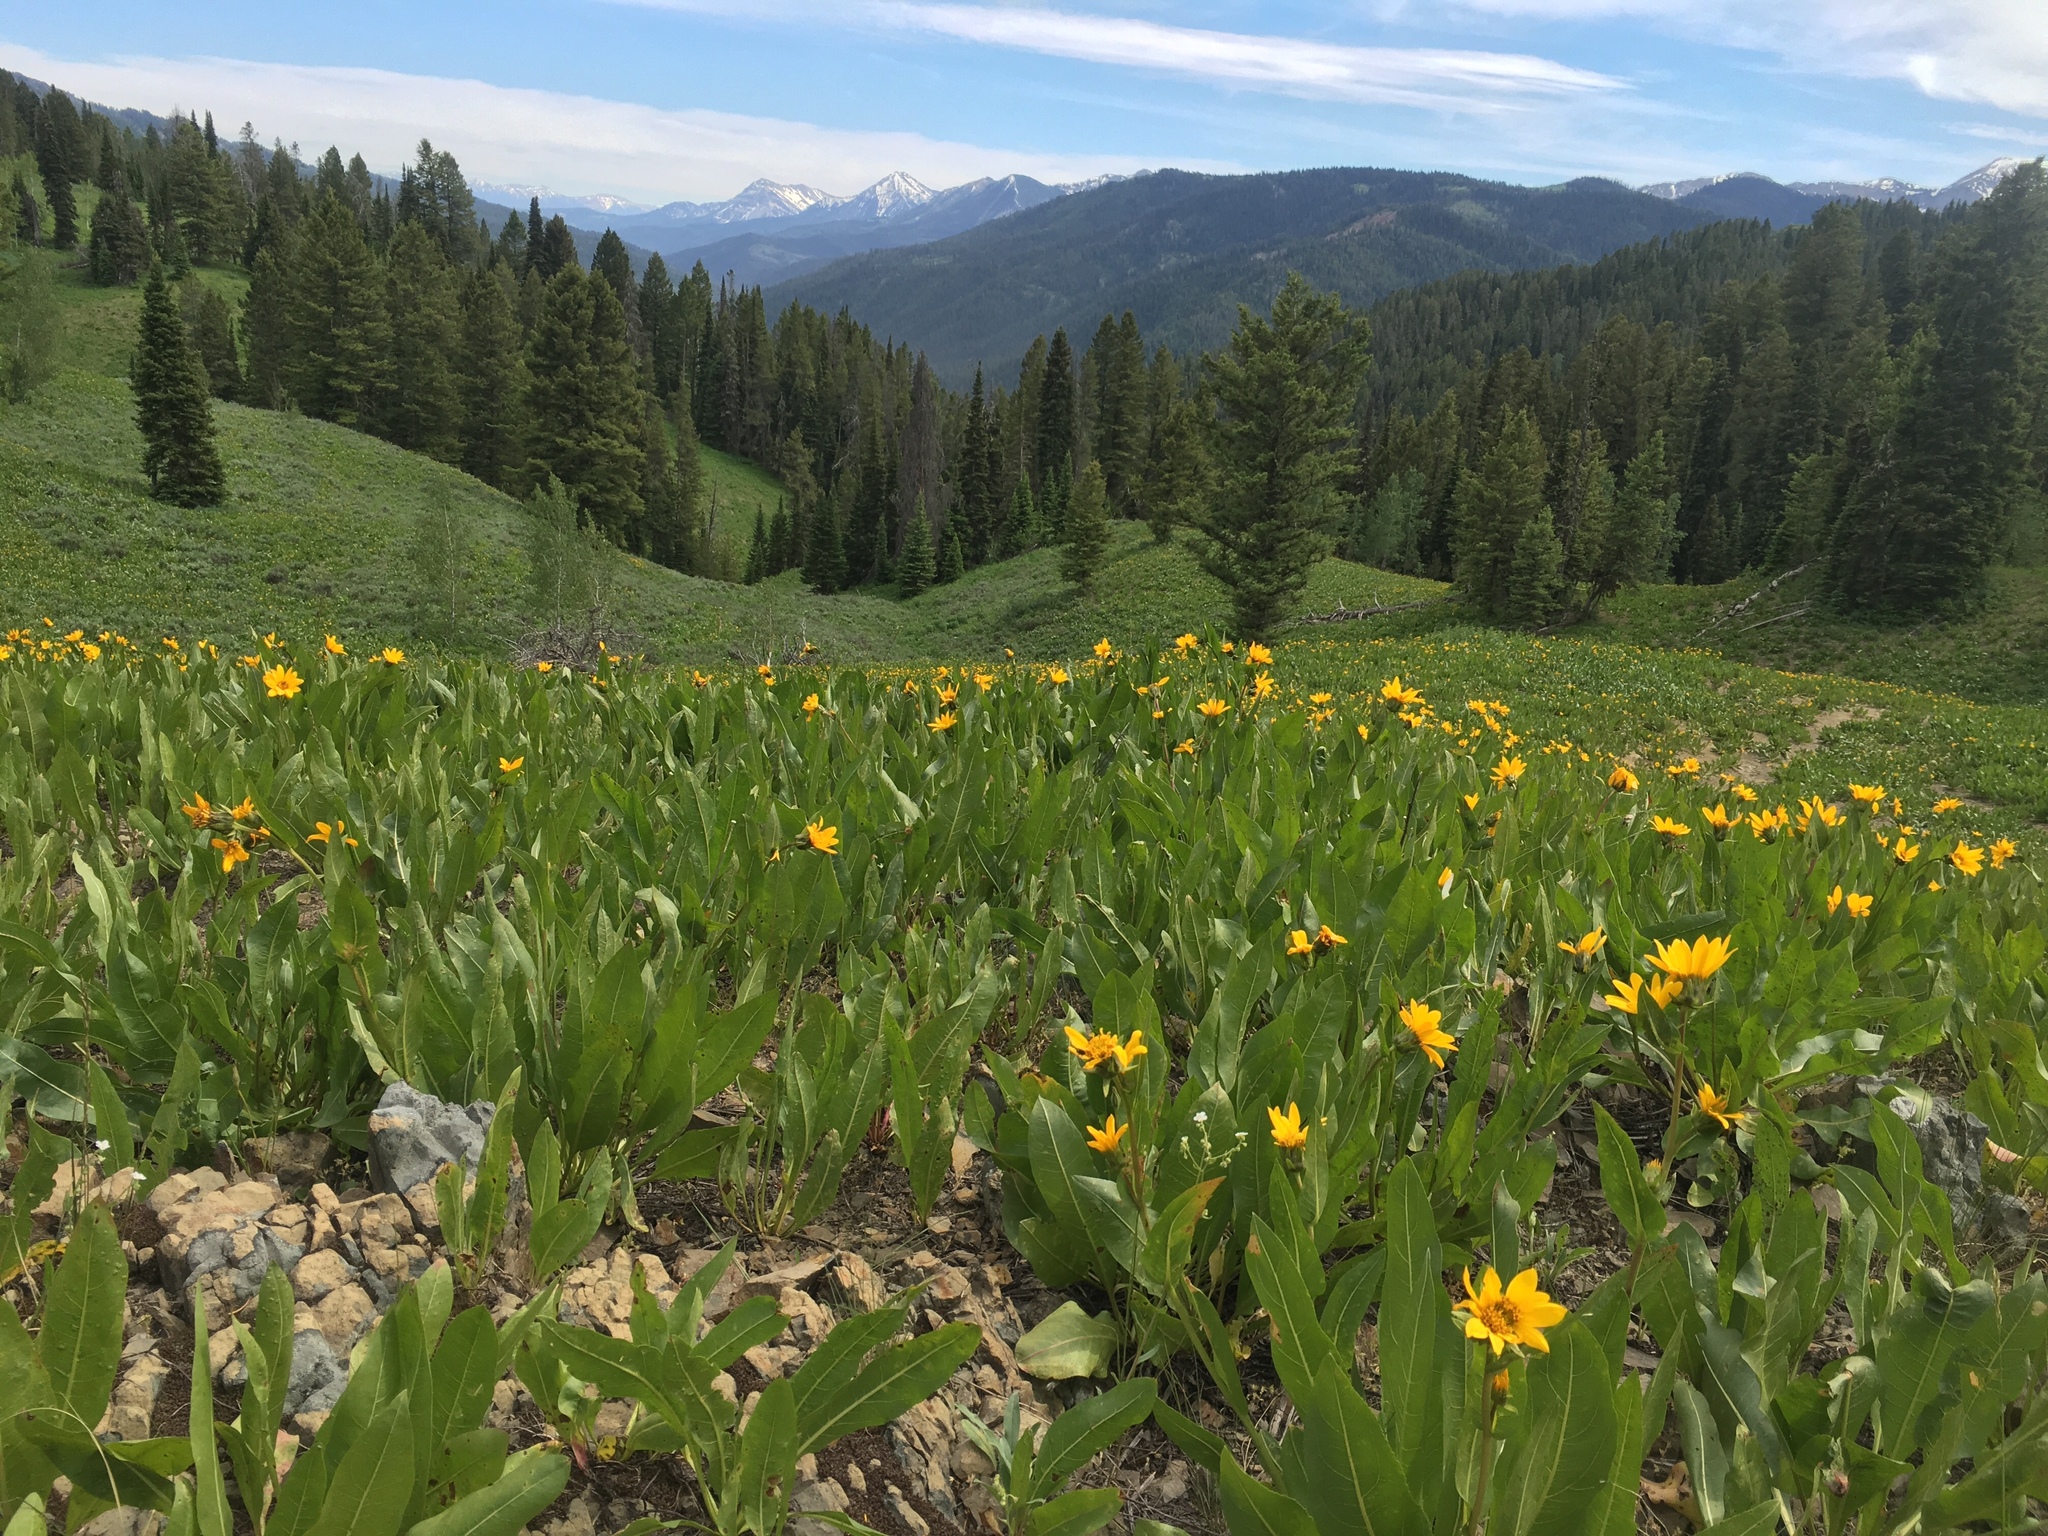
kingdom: Plantae
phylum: Tracheophyta
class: Magnoliopsida
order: Asterales
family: Asteraceae
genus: Wyethia
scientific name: Wyethia amplexicaulis
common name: Northern mule's-ears
